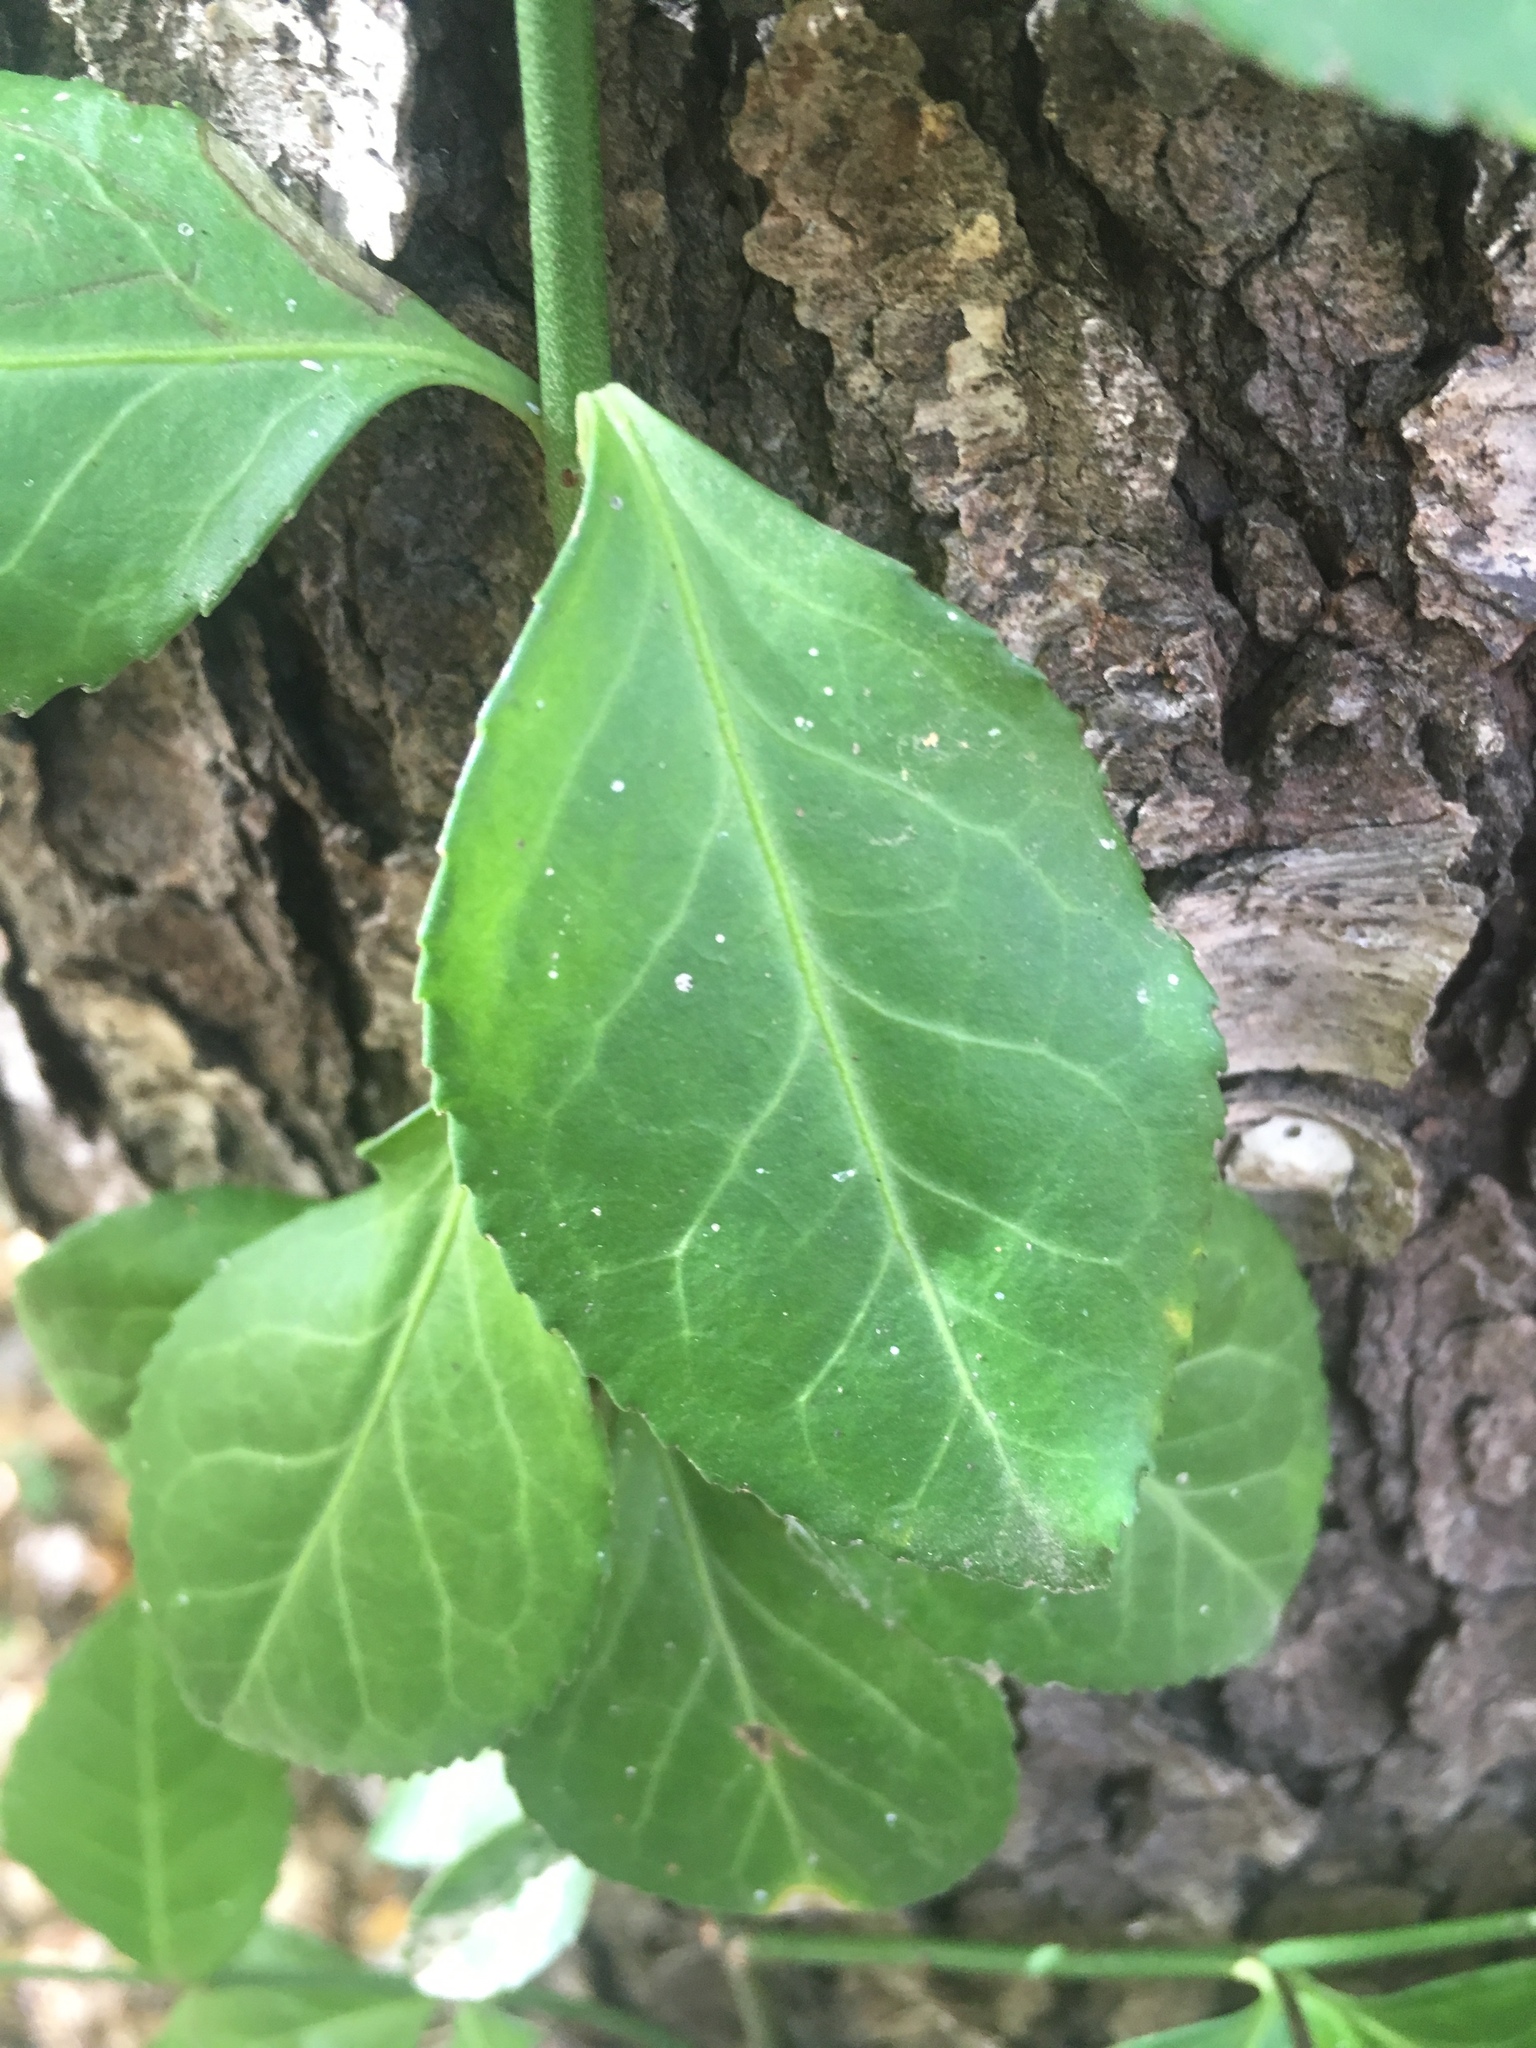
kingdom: Plantae
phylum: Tracheophyta
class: Magnoliopsida
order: Celastrales
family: Celastraceae
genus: Euonymus
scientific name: Euonymus fortunei
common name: Climbing euonymus
